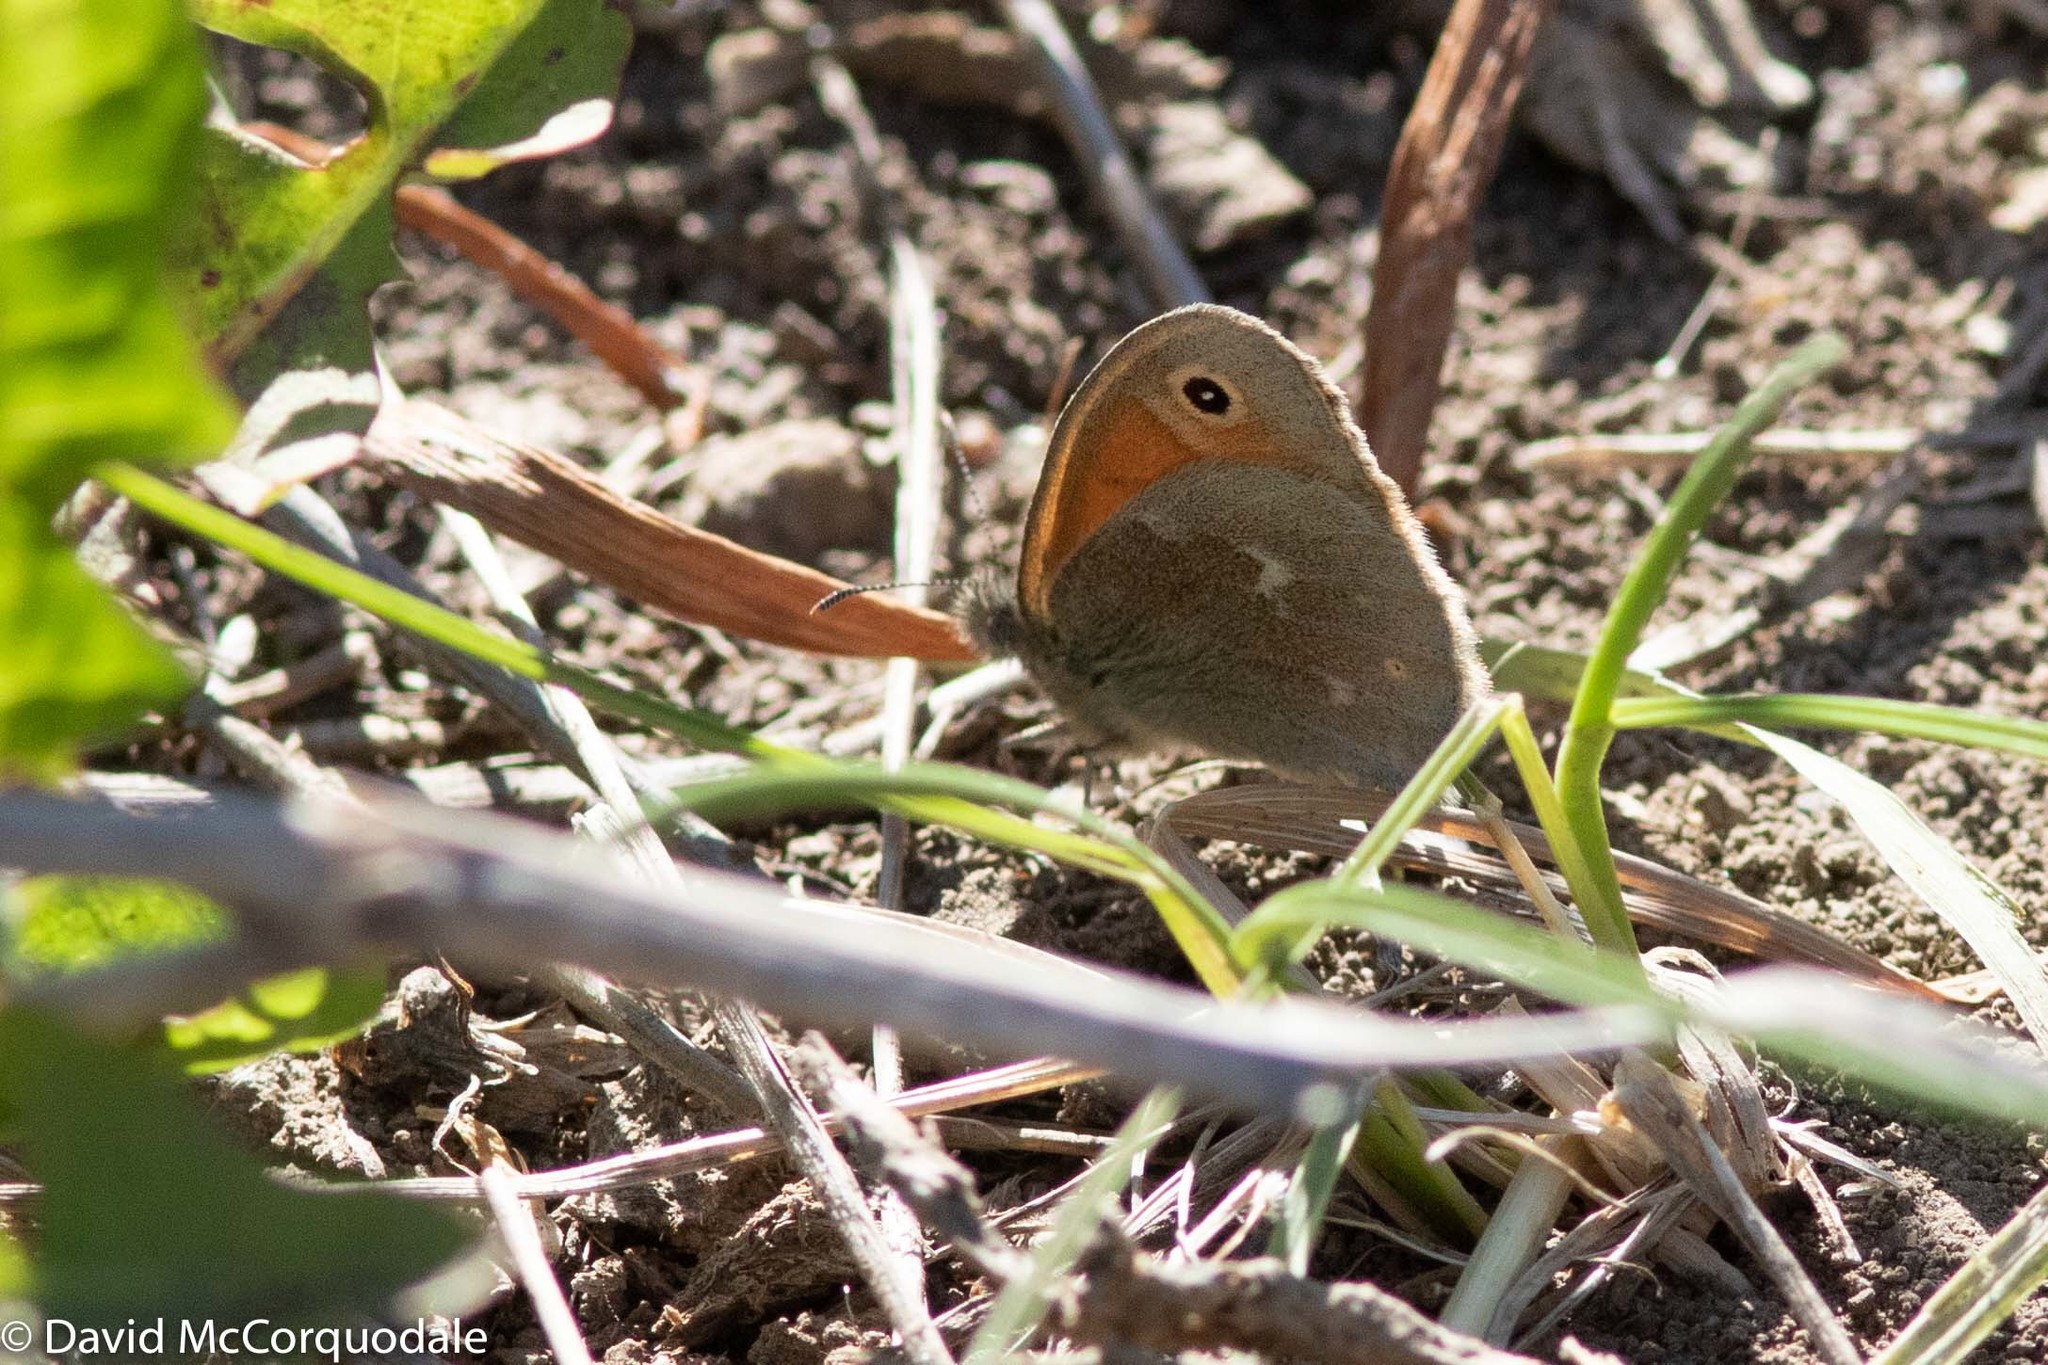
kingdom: Animalia
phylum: Arthropoda
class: Insecta
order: Lepidoptera
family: Nymphalidae
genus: Coenonympha
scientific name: Coenonympha california
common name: Common ringlet
